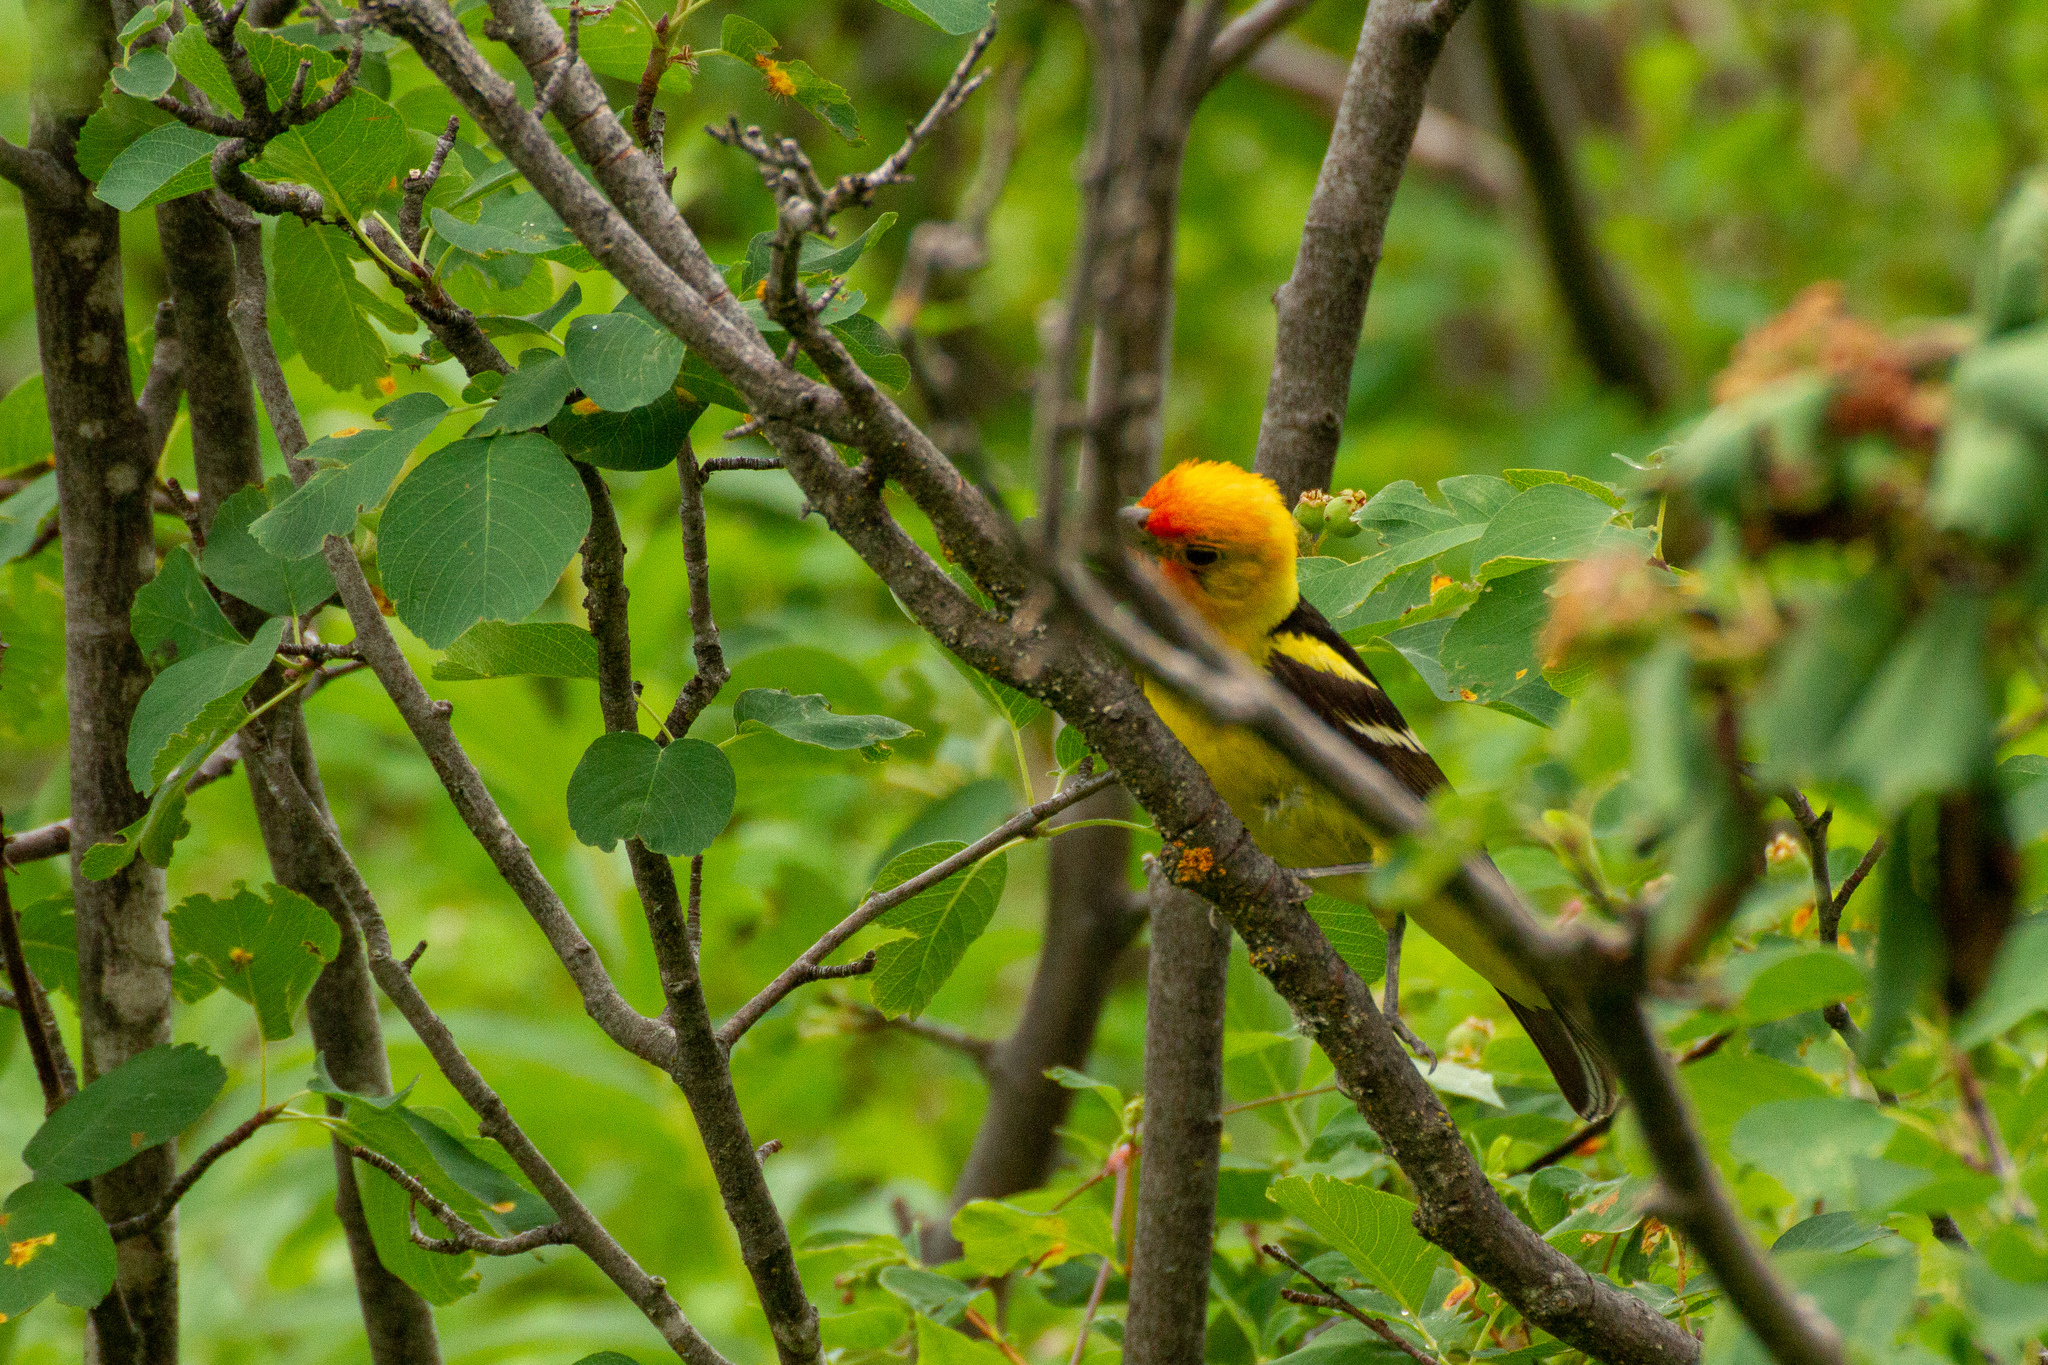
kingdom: Animalia
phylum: Chordata
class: Aves
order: Passeriformes
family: Cardinalidae
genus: Piranga
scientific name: Piranga ludoviciana
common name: Western tanager
